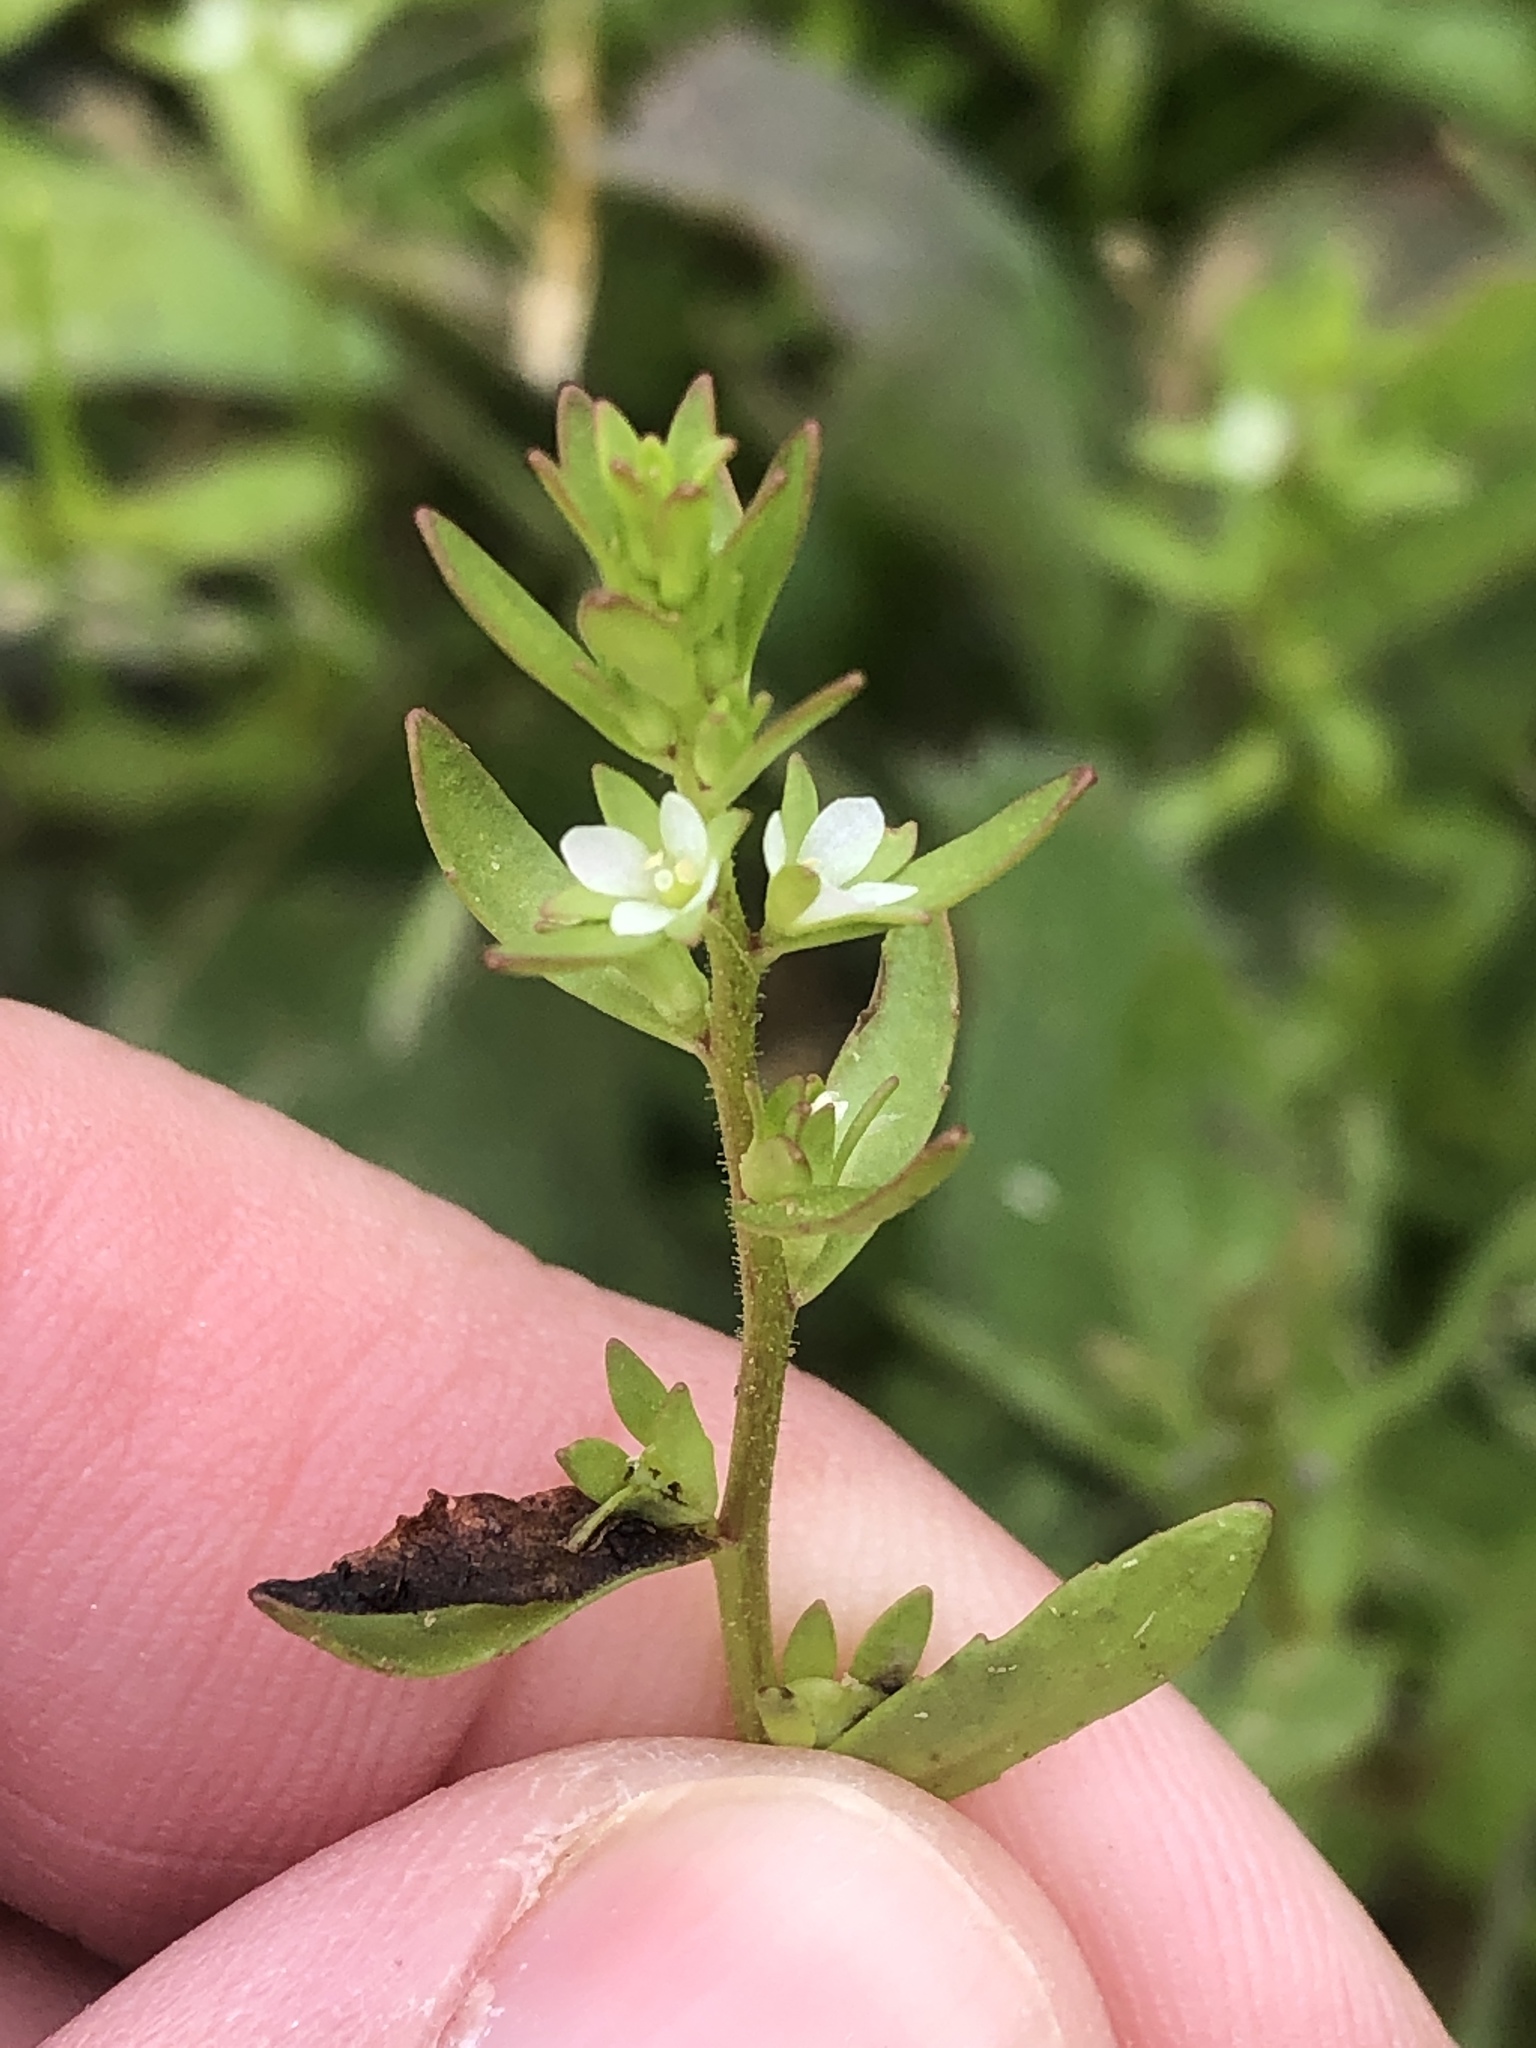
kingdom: Plantae
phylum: Tracheophyta
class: Magnoliopsida
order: Lamiales
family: Plantaginaceae
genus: Veronica
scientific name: Veronica peregrina
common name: Neckweed
